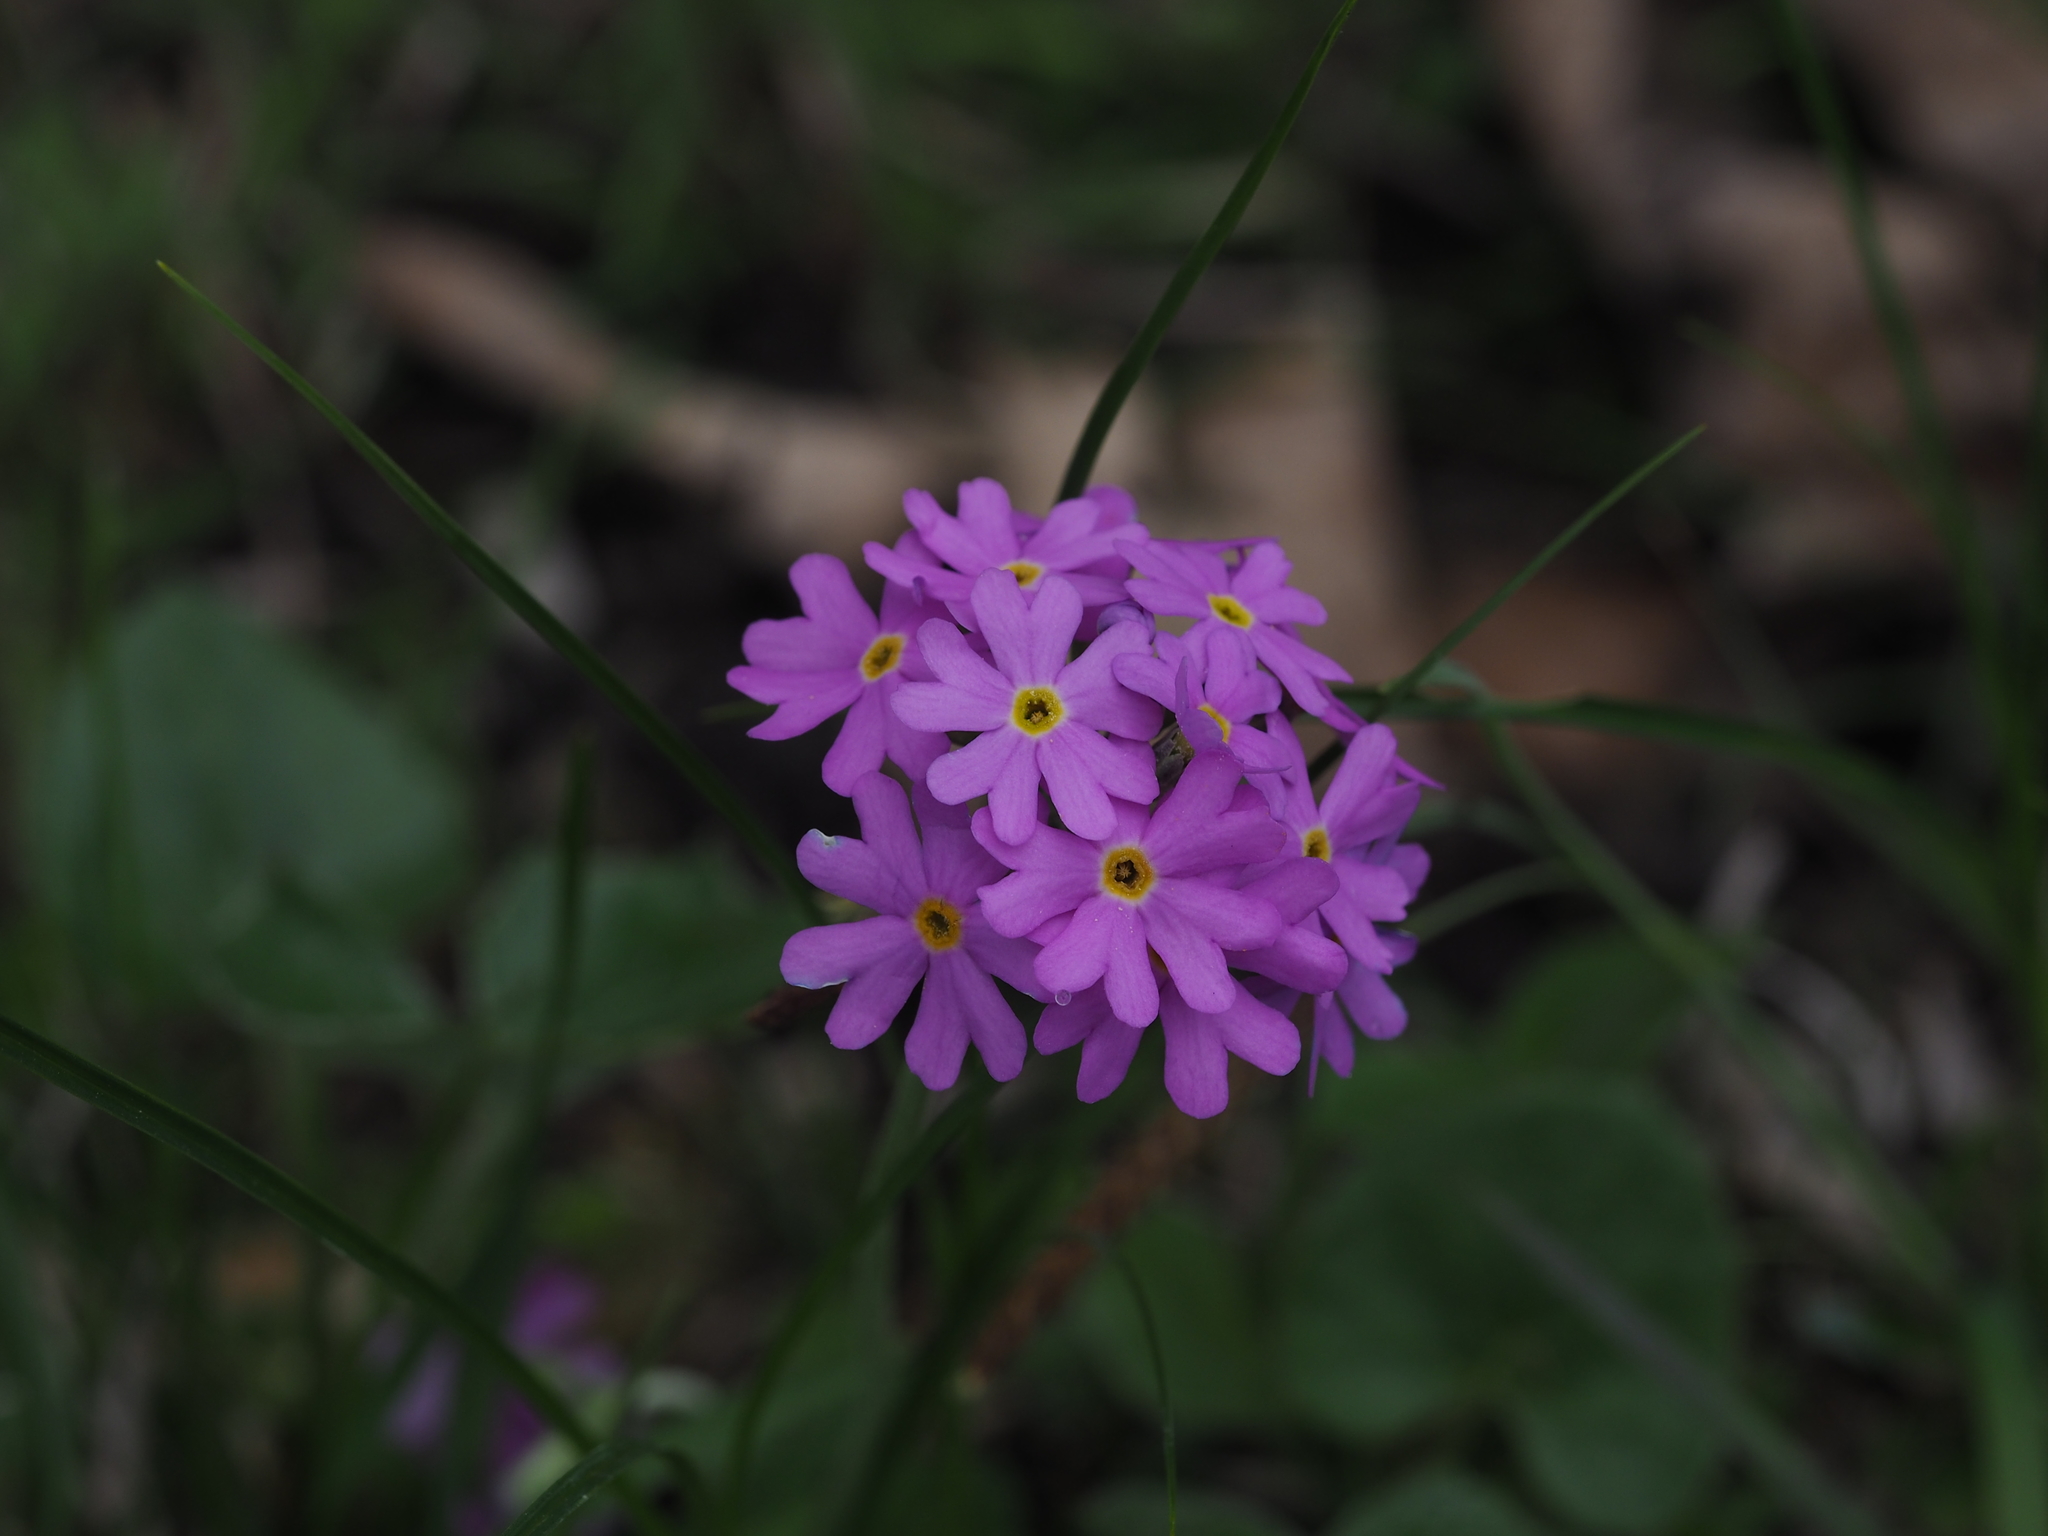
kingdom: Plantae
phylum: Tracheophyta
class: Magnoliopsida
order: Ericales
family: Primulaceae
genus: Primula
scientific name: Primula farinosa
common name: Bird's-eye primrose
